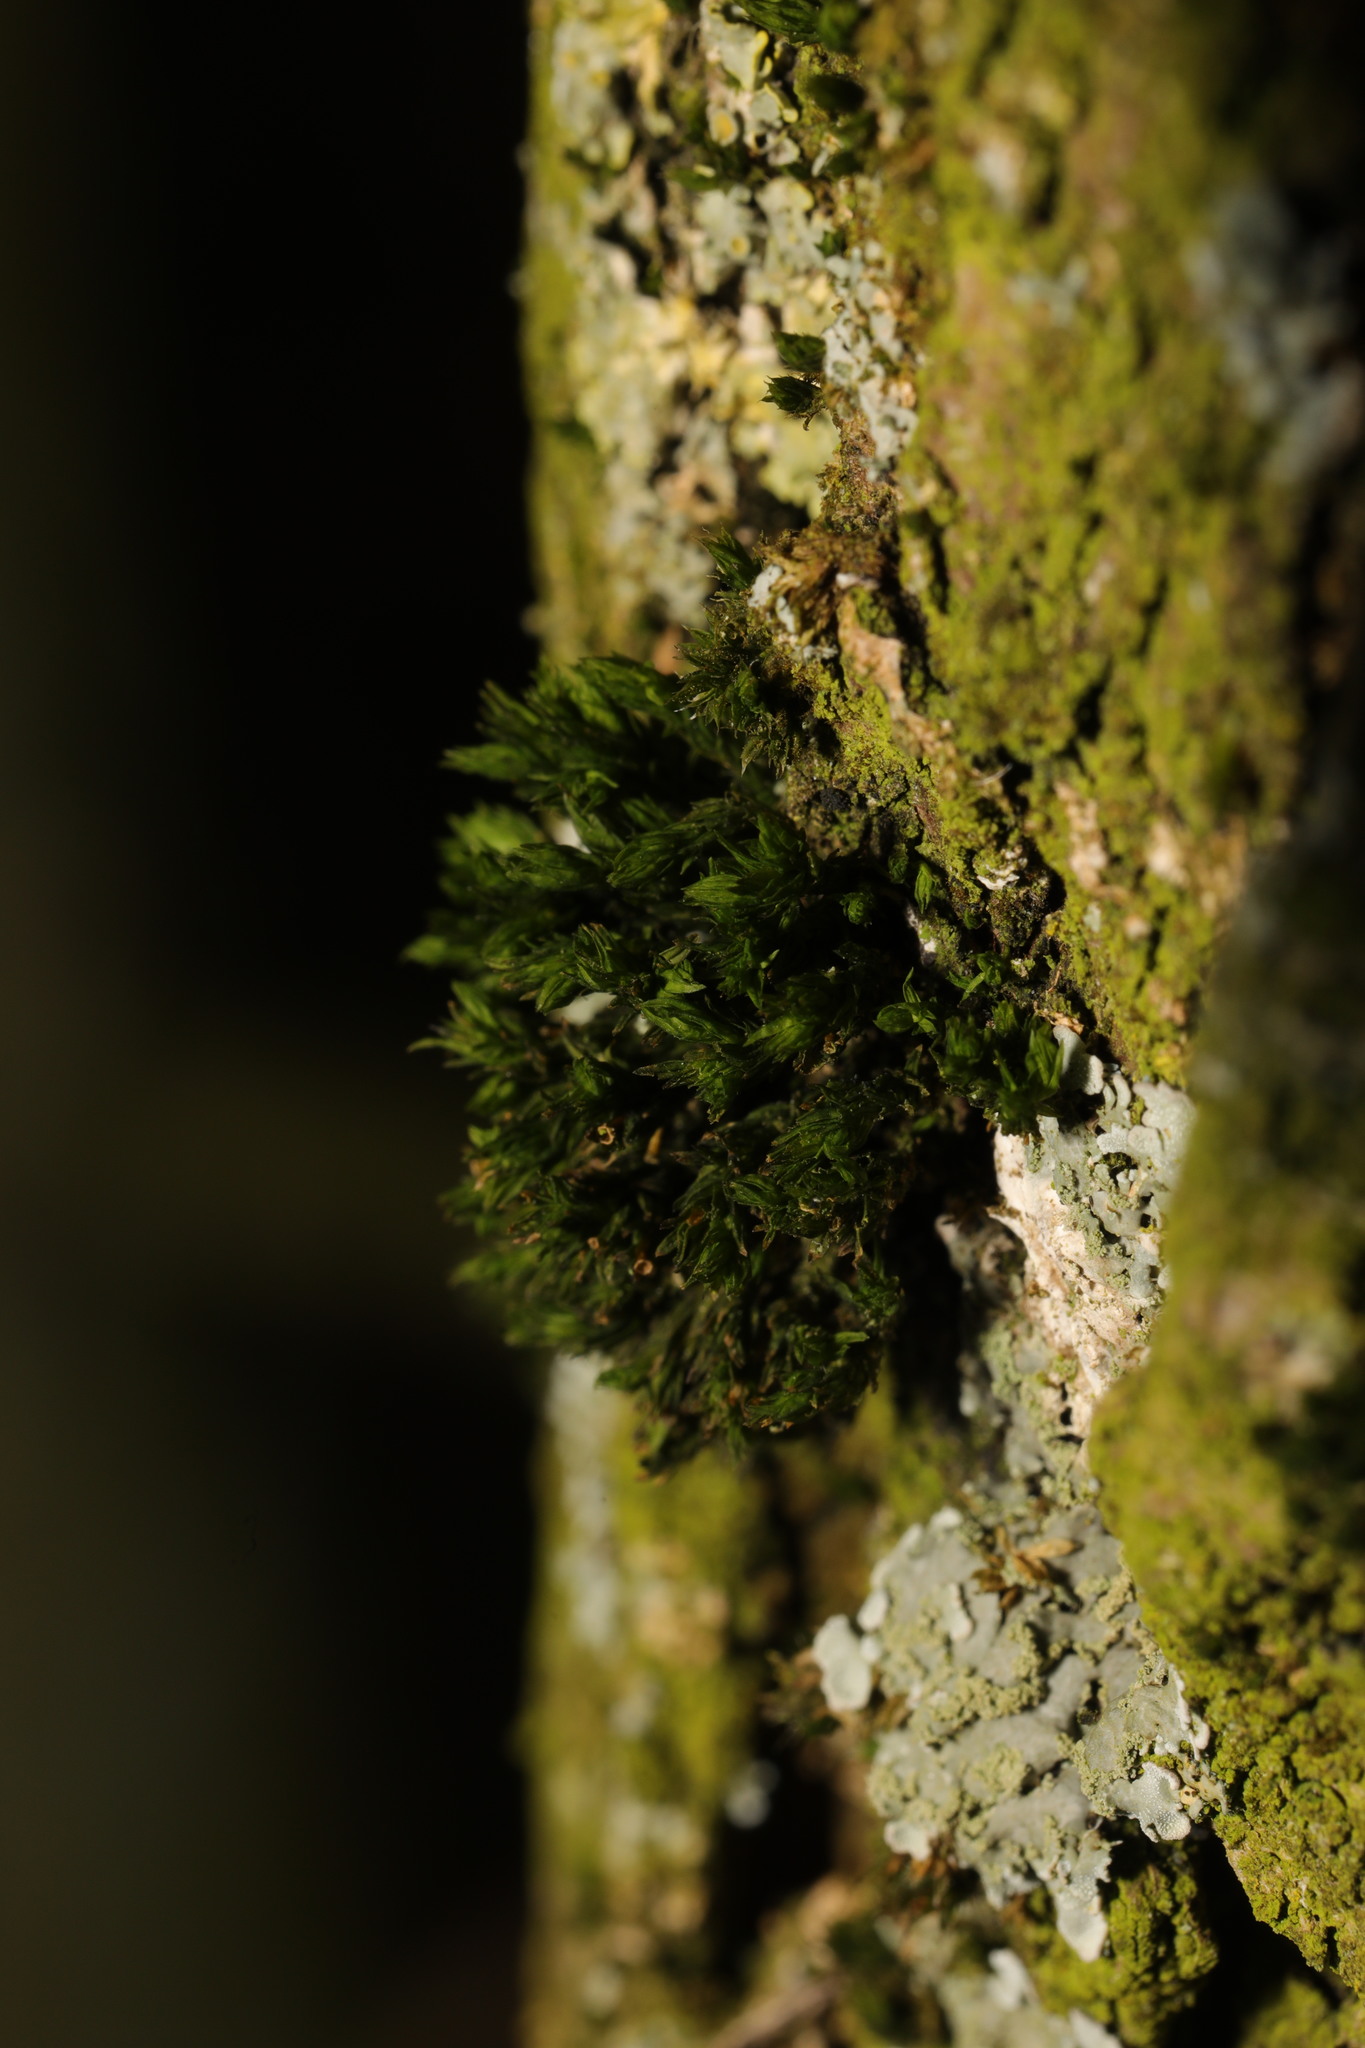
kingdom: Plantae
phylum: Bryophyta
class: Bryopsida
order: Orthotrichales
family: Orthotrichaceae
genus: Lewinskya
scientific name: Lewinskya affinis
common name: Wood bristle-moss
